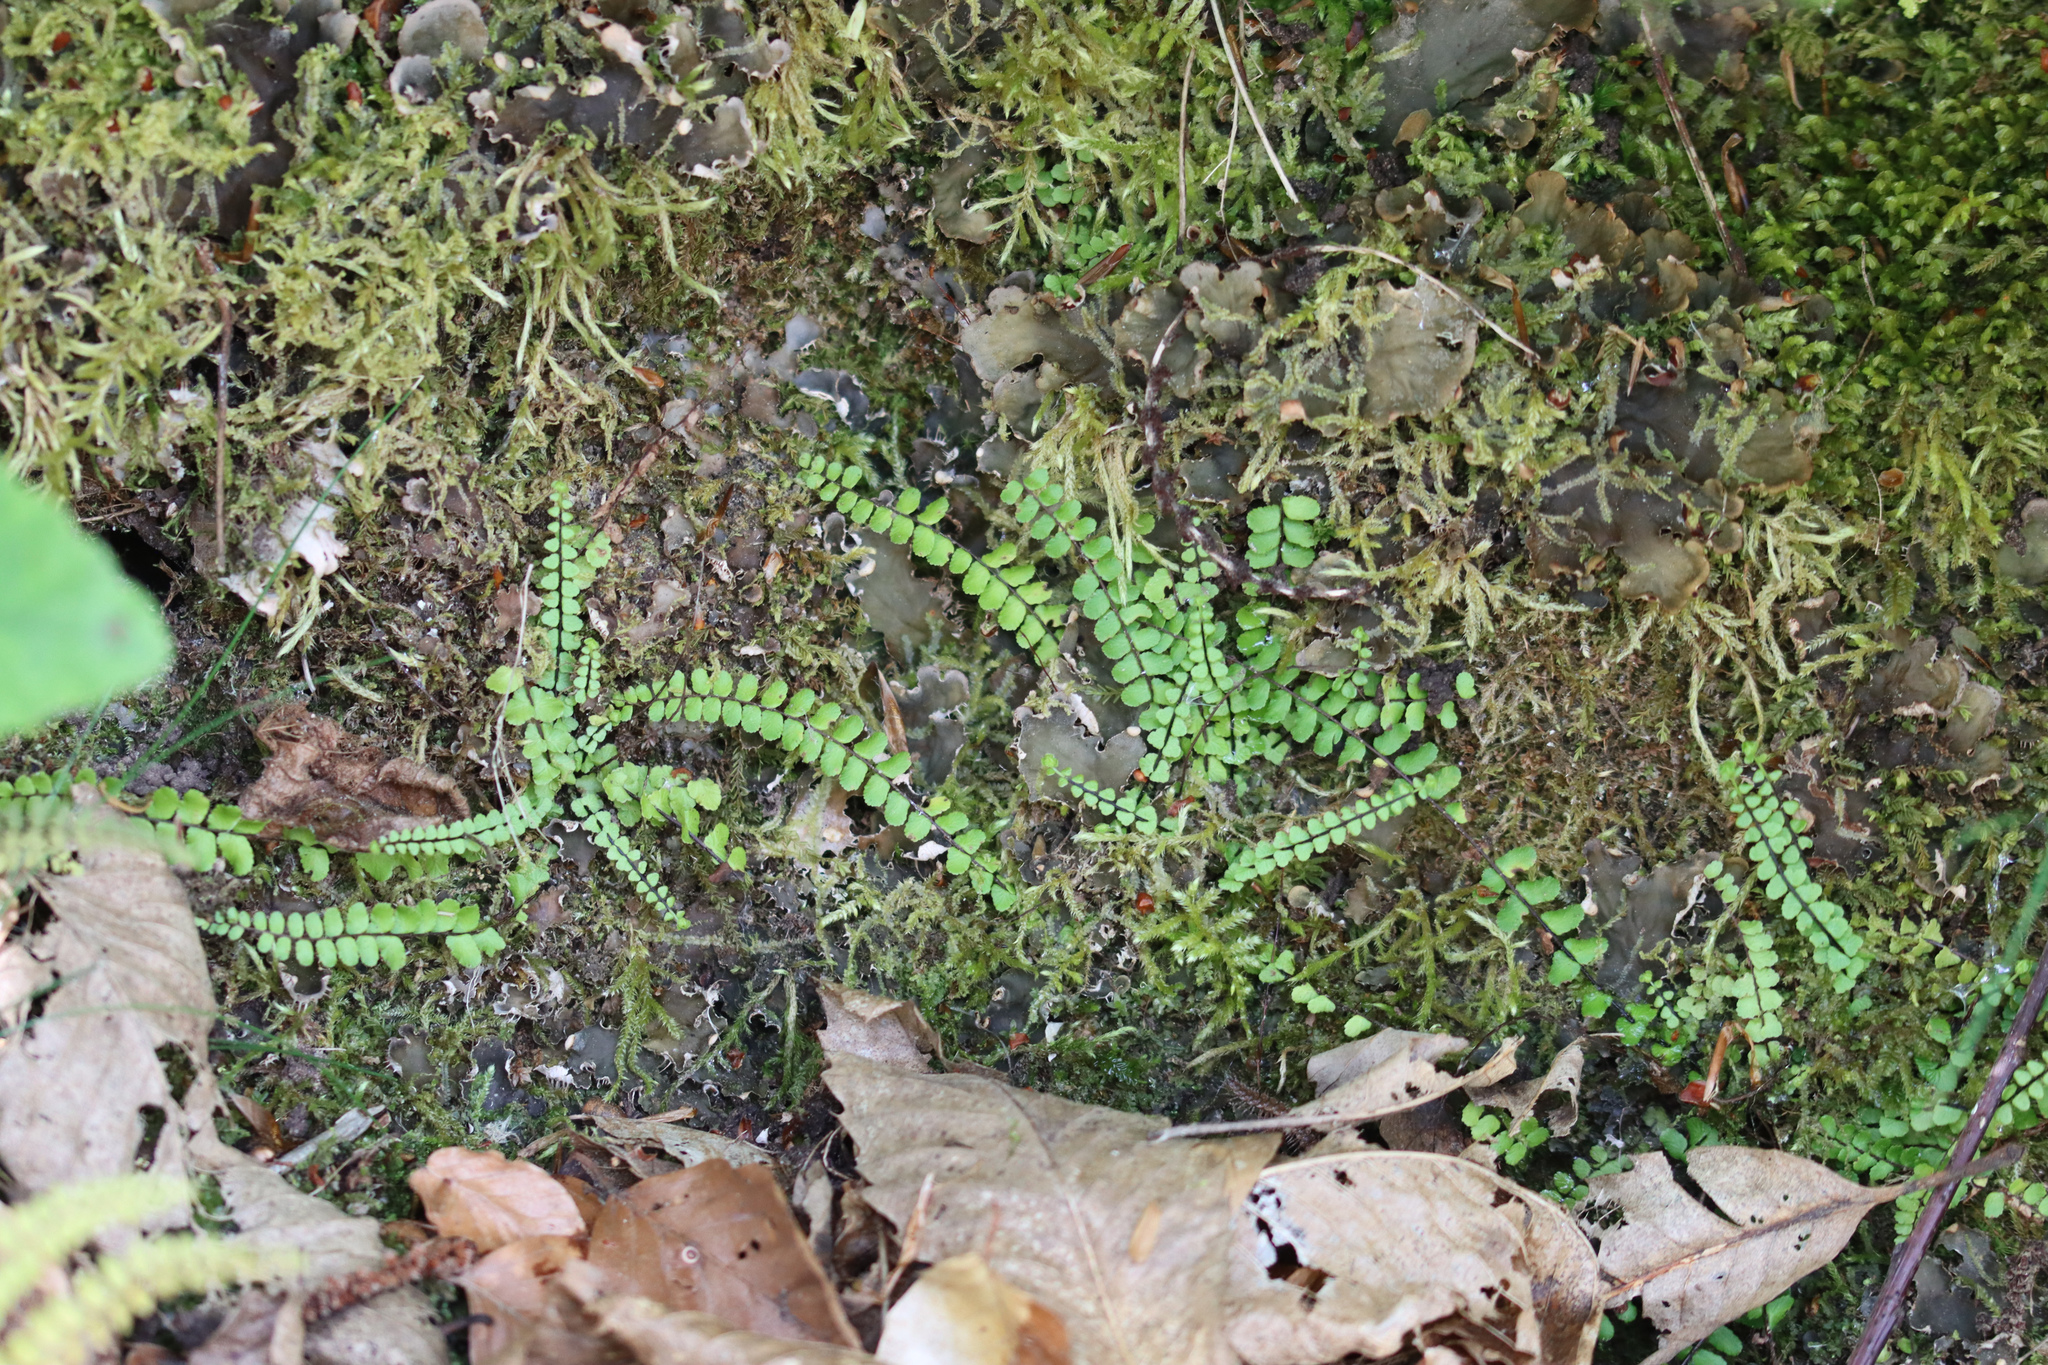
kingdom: Plantae
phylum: Tracheophyta
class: Polypodiopsida
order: Polypodiales
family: Aspleniaceae
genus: Asplenium
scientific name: Asplenium trichomanes
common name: Maidenhair spleenwort
